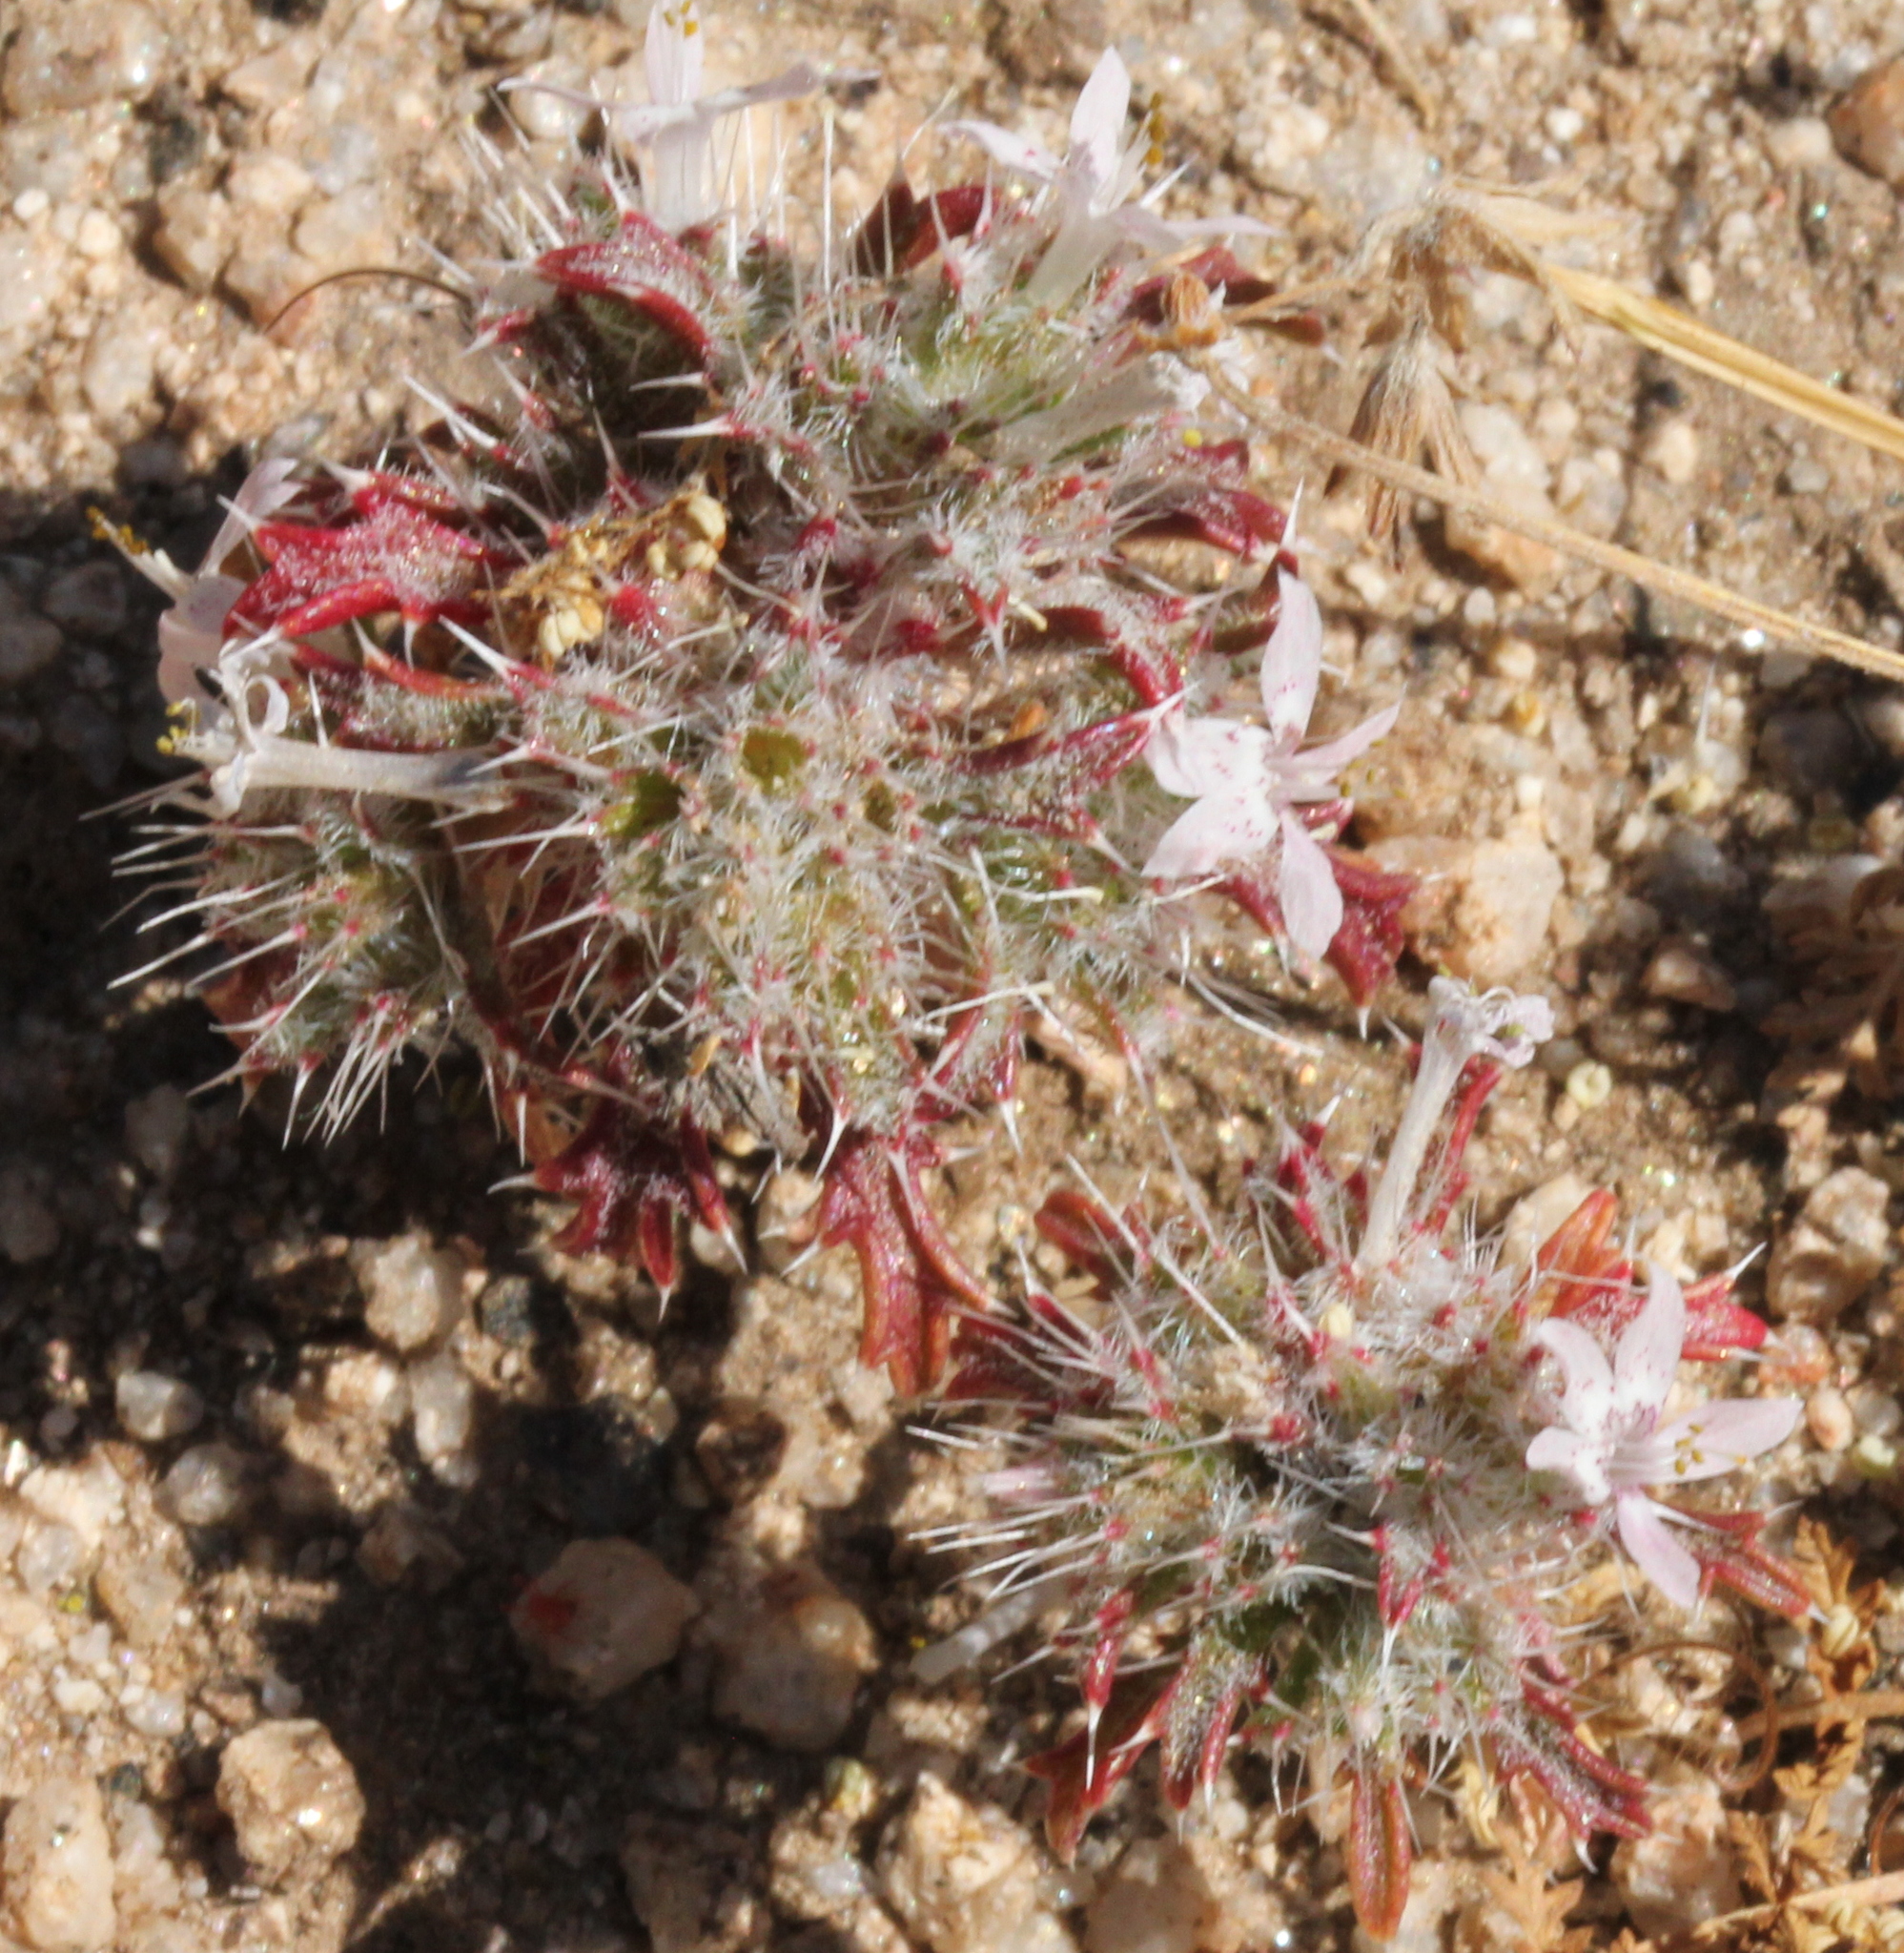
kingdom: Plantae
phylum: Tracheophyta
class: Magnoliopsida
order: Ericales
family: Polemoniaceae
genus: Loeseliastrum
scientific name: Loeseliastrum schottii
